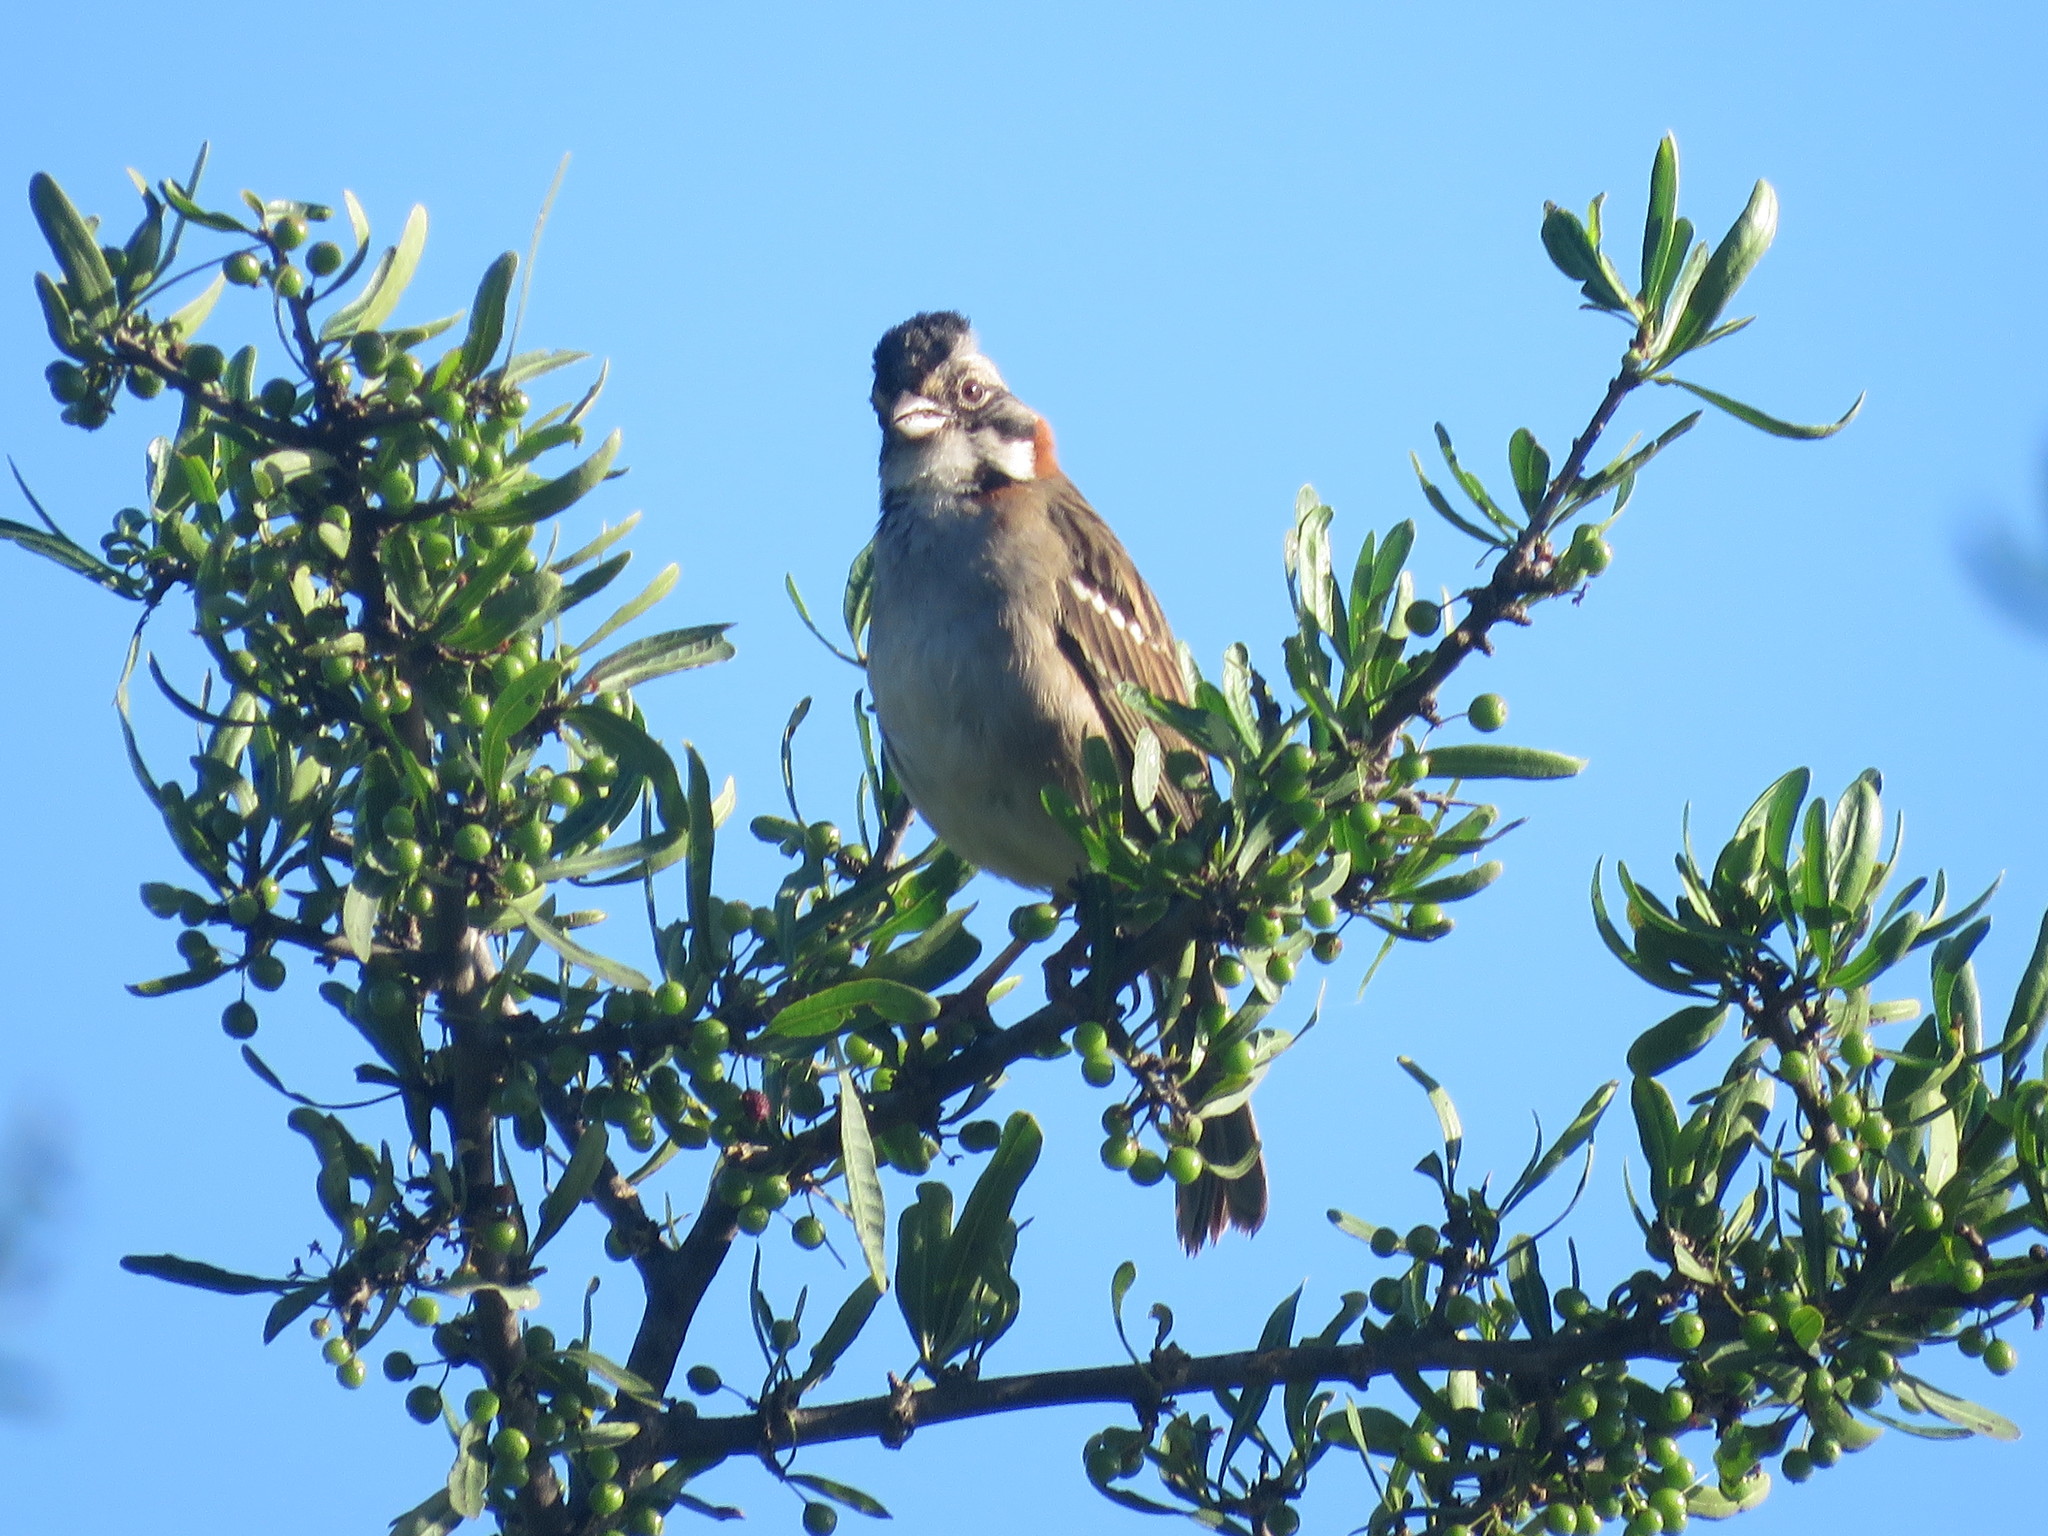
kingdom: Animalia
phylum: Chordata
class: Aves
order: Passeriformes
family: Passerellidae
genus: Zonotrichia
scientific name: Zonotrichia capensis
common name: Rufous-collared sparrow
